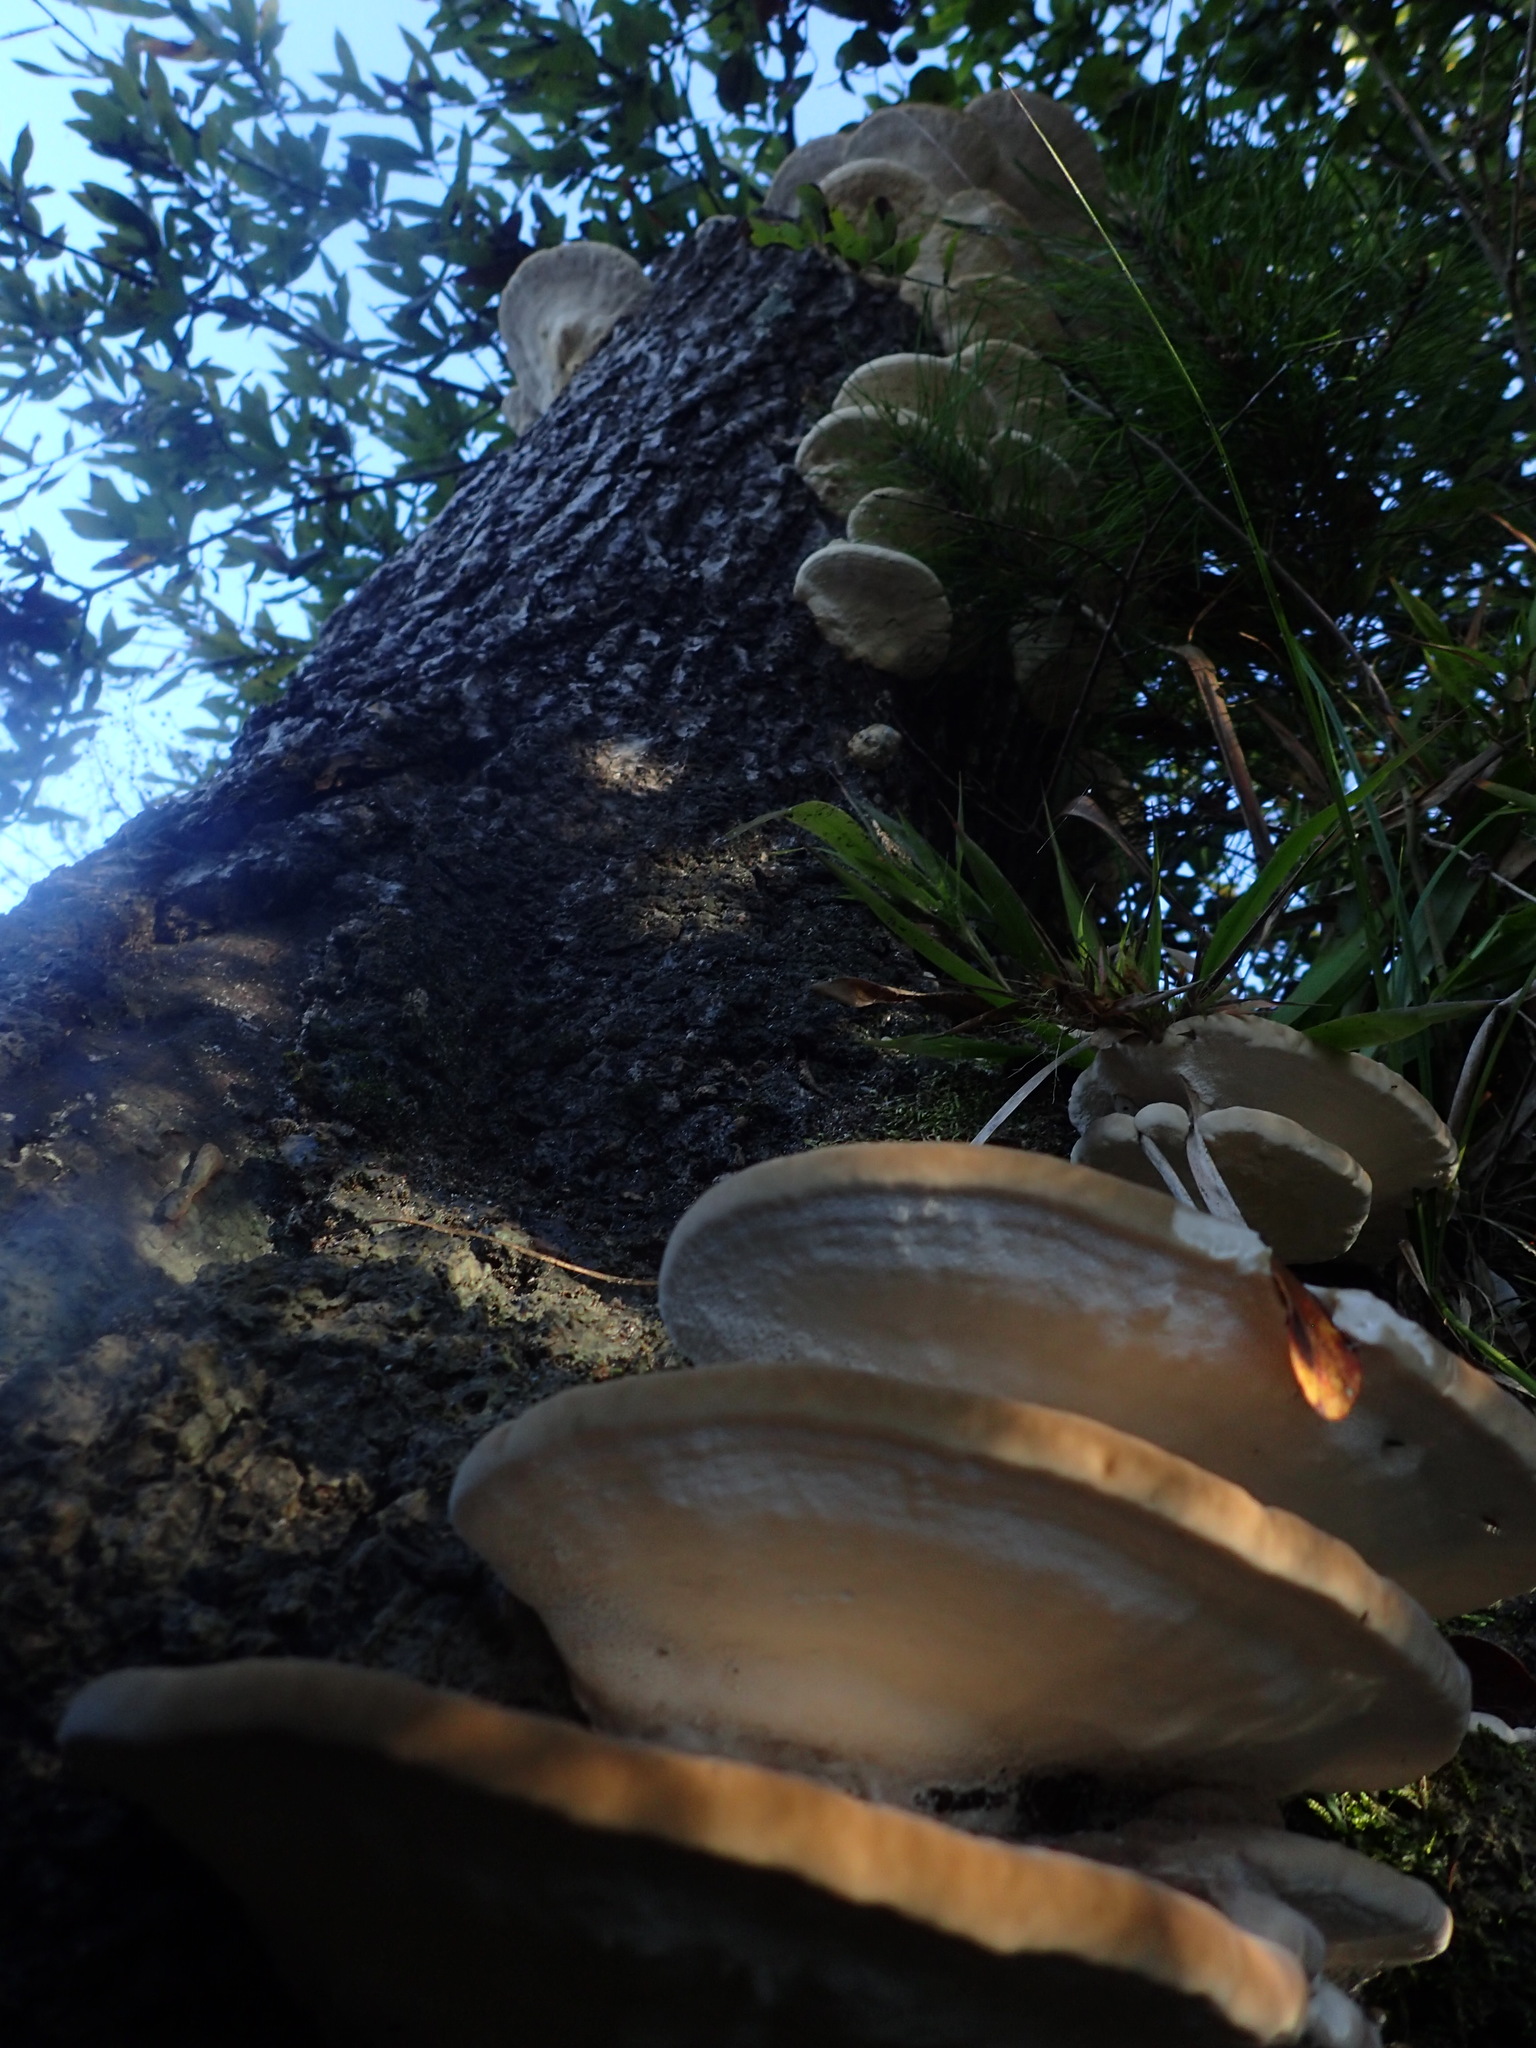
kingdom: Fungi
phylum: Basidiomycota
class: Agaricomycetes
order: Polyporales
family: Polyporaceae
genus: Trametes
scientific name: Trametes lactinea
